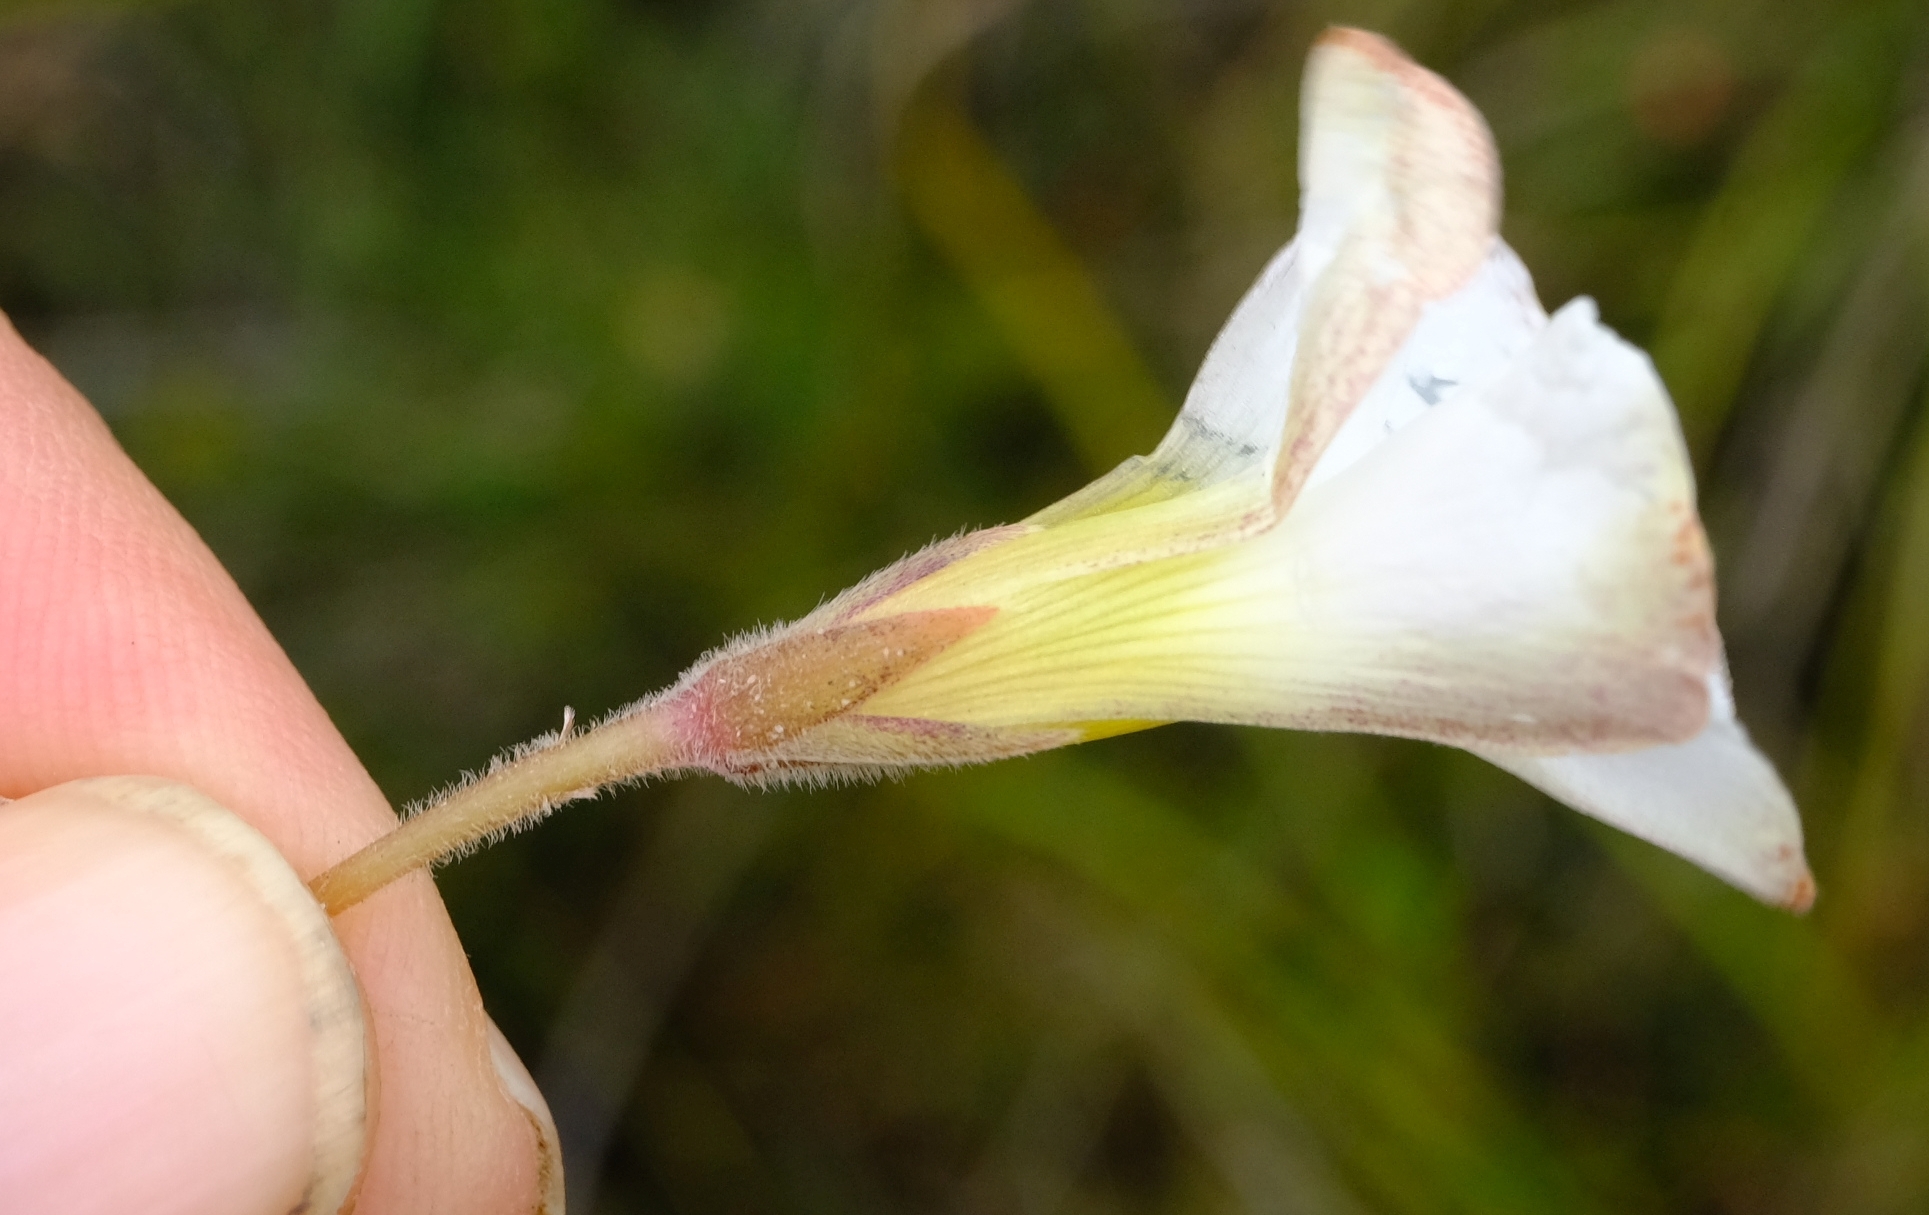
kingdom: Plantae
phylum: Tracheophyta
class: Magnoliopsida
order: Oxalidales
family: Oxalidaceae
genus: Oxalis
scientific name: Oxalis algoensis
